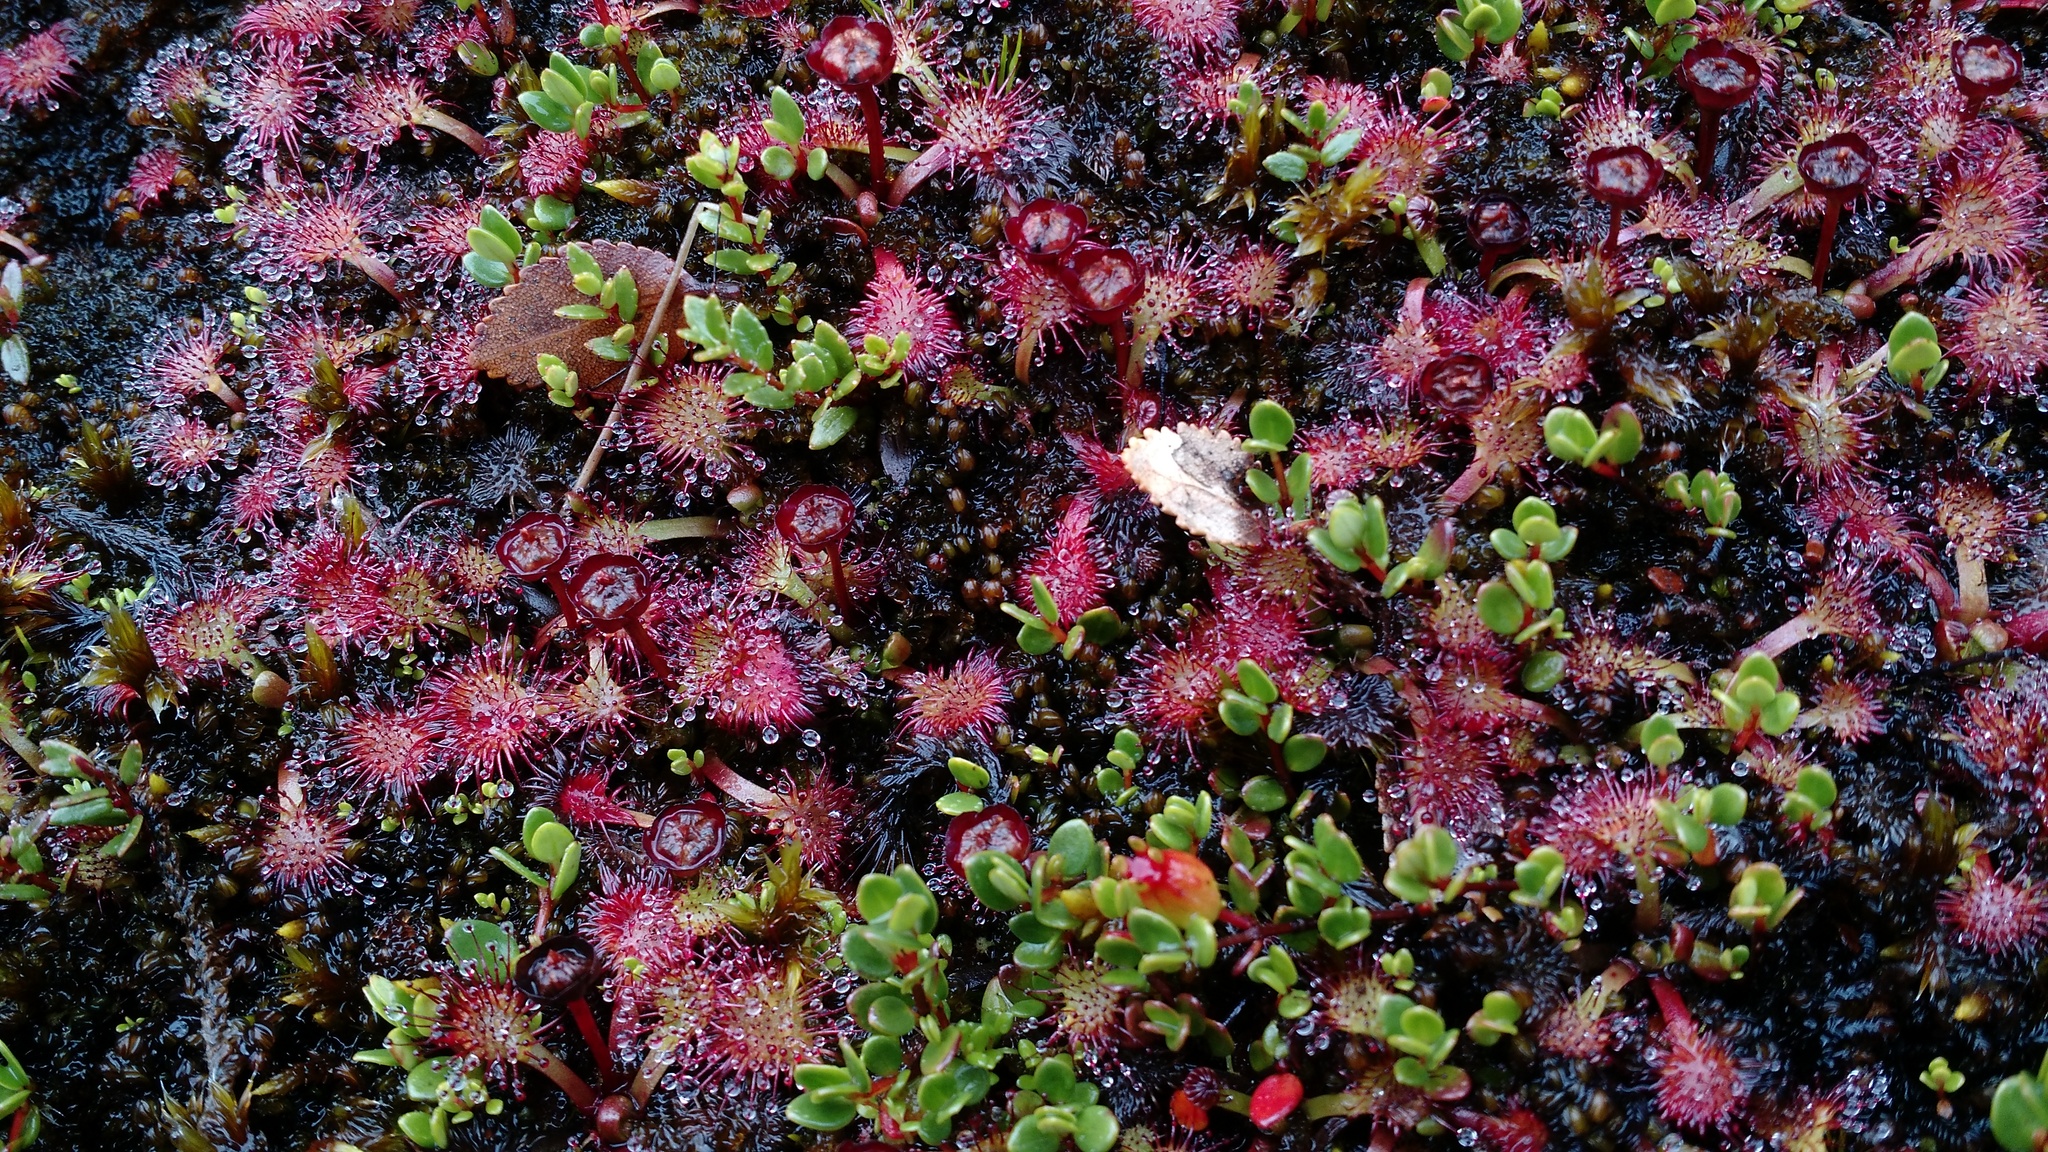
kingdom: Plantae
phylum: Tracheophyta
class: Magnoliopsida
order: Caryophyllales
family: Droseraceae
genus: Drosera
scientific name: Drosera uniflora
